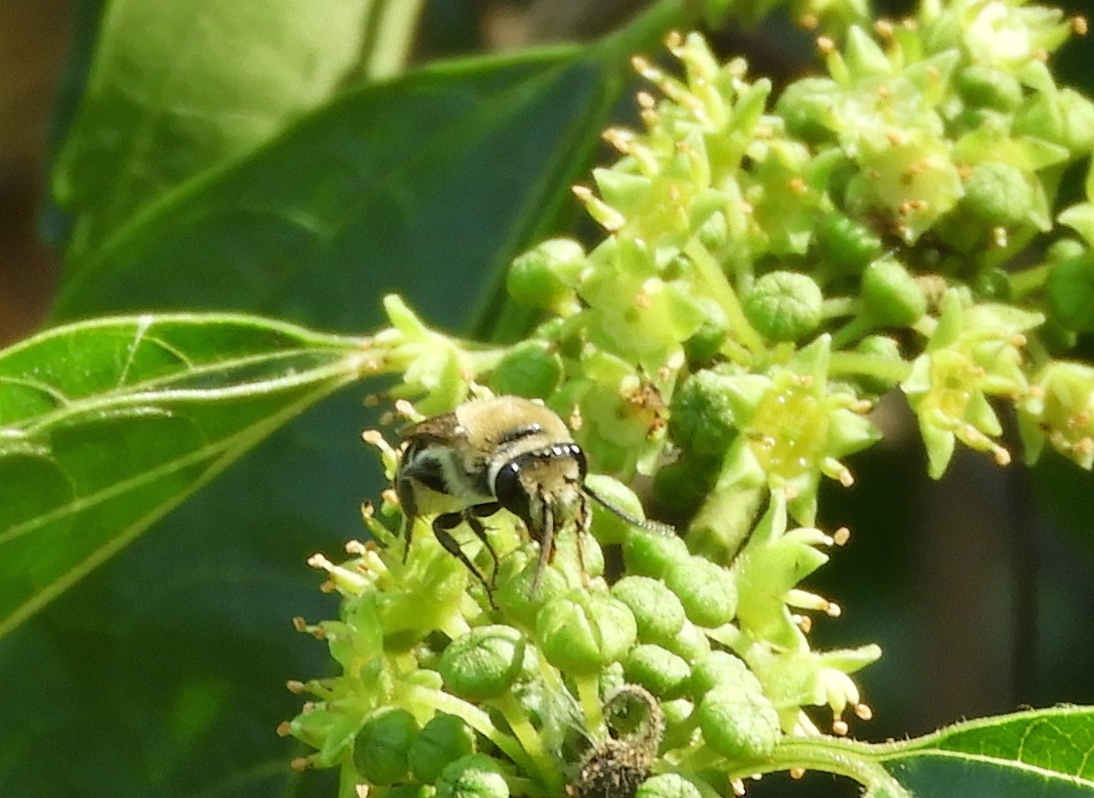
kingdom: Animalia
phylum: Arthropoda
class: Insecta
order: Hymenoptera
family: Colletidae
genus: Colletes
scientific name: Colletes
